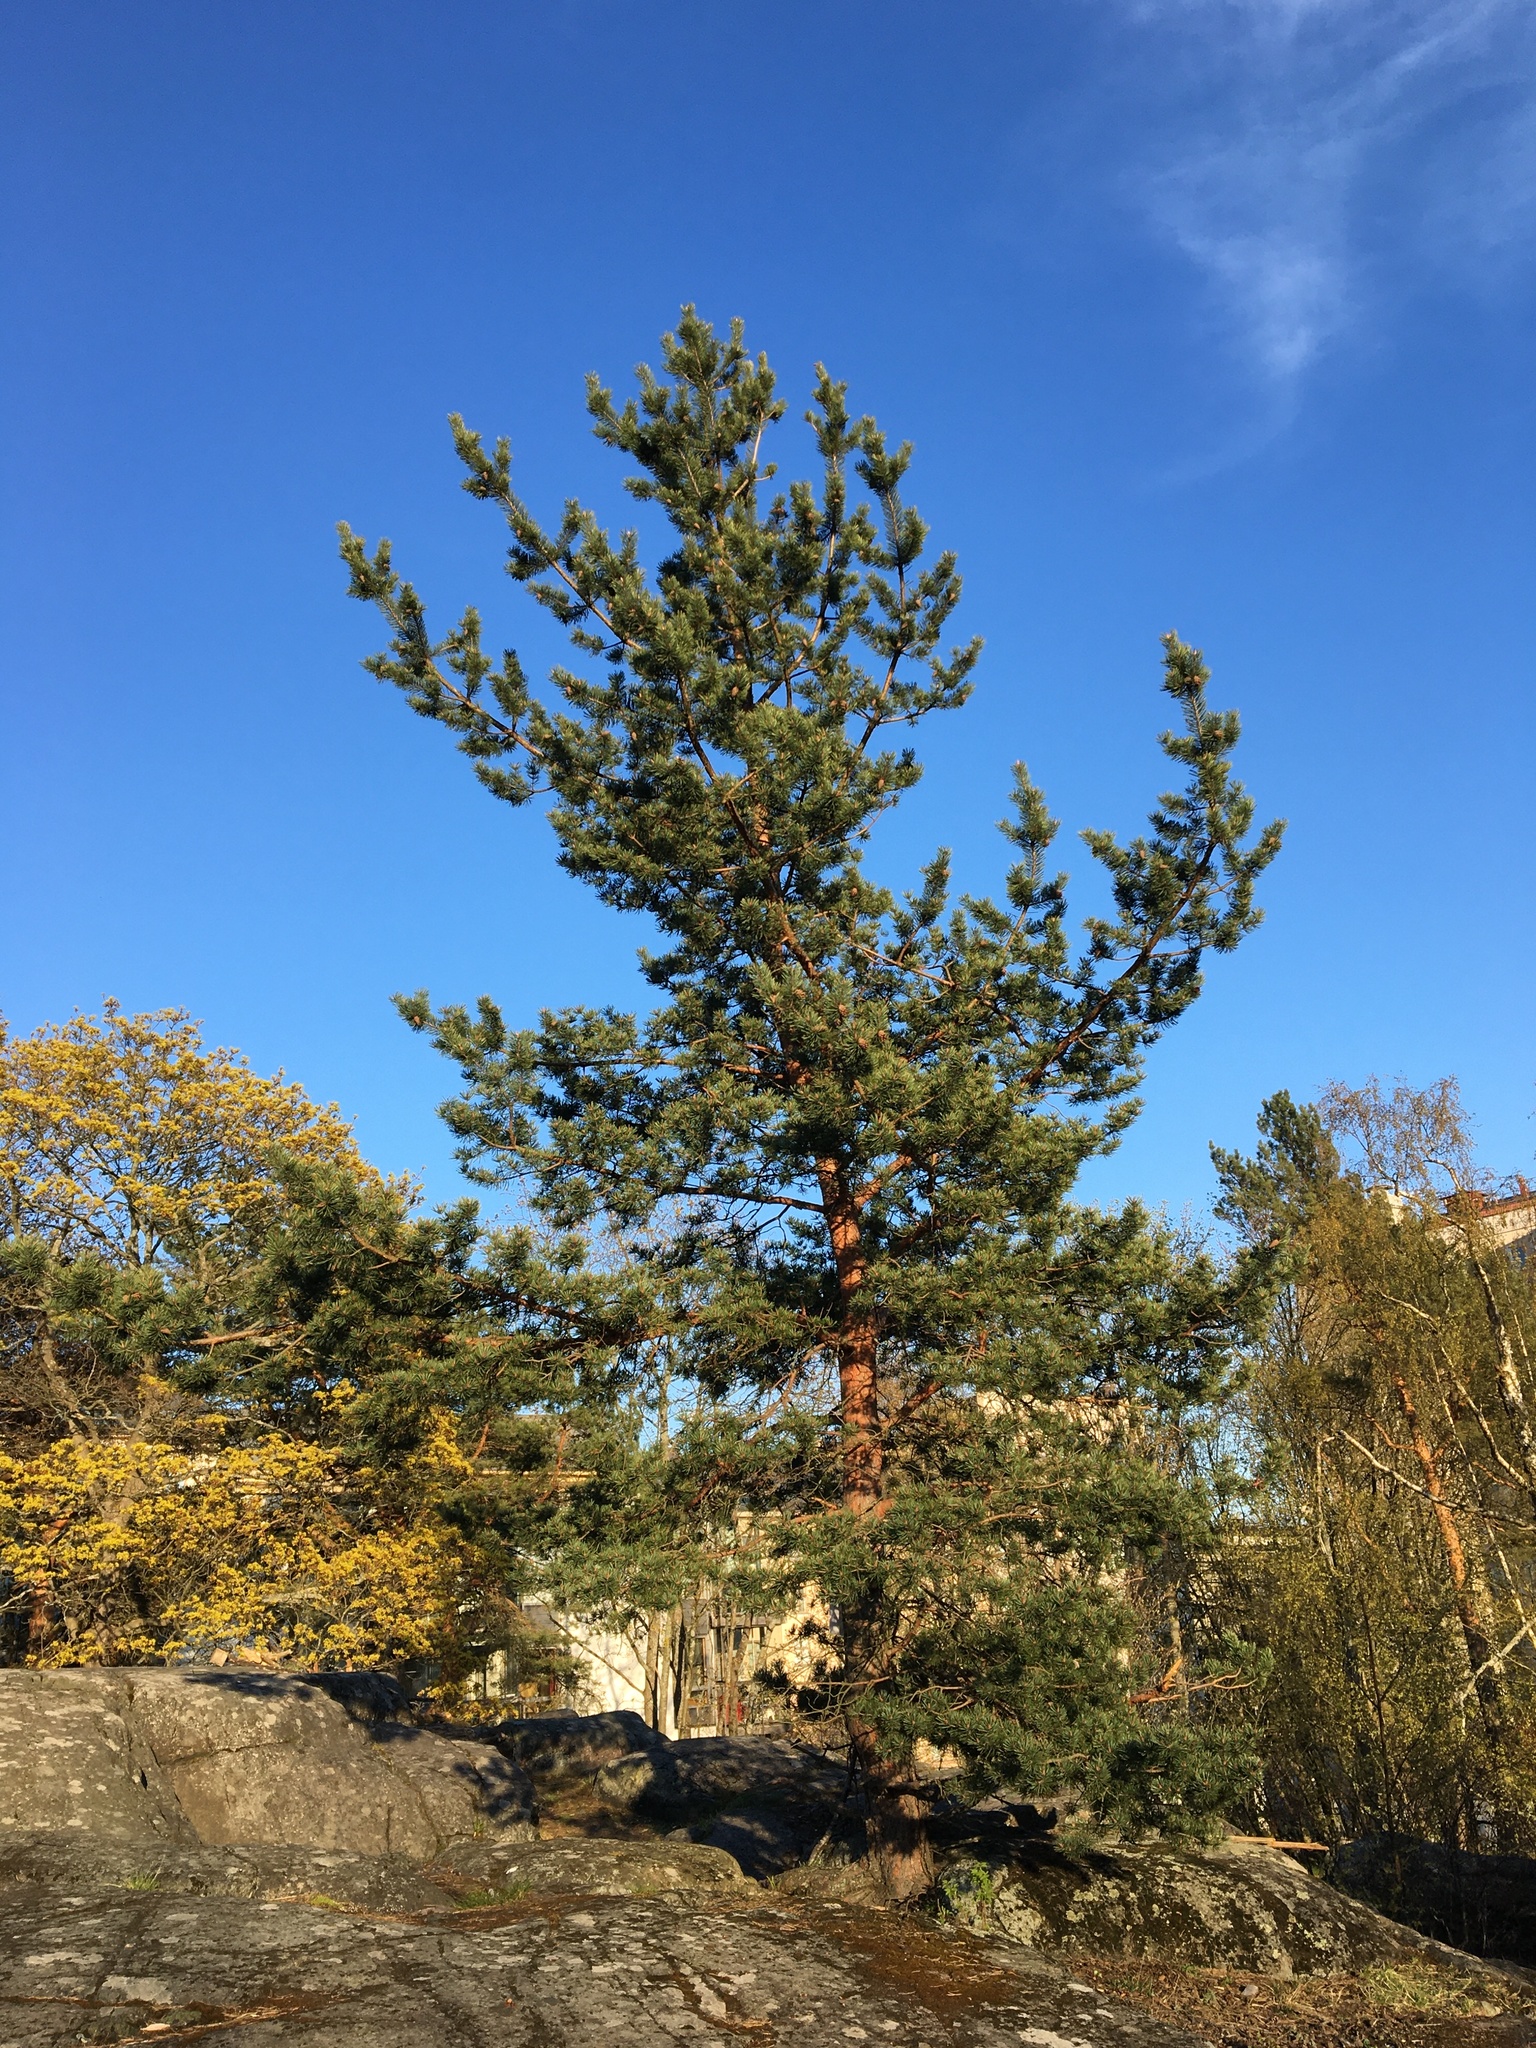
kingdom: Plantae
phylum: Tracheophyta
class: Pinopsida
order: Pinales
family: Pinaceae
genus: Pinus
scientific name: Pinus sylvestris
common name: Scots pine
